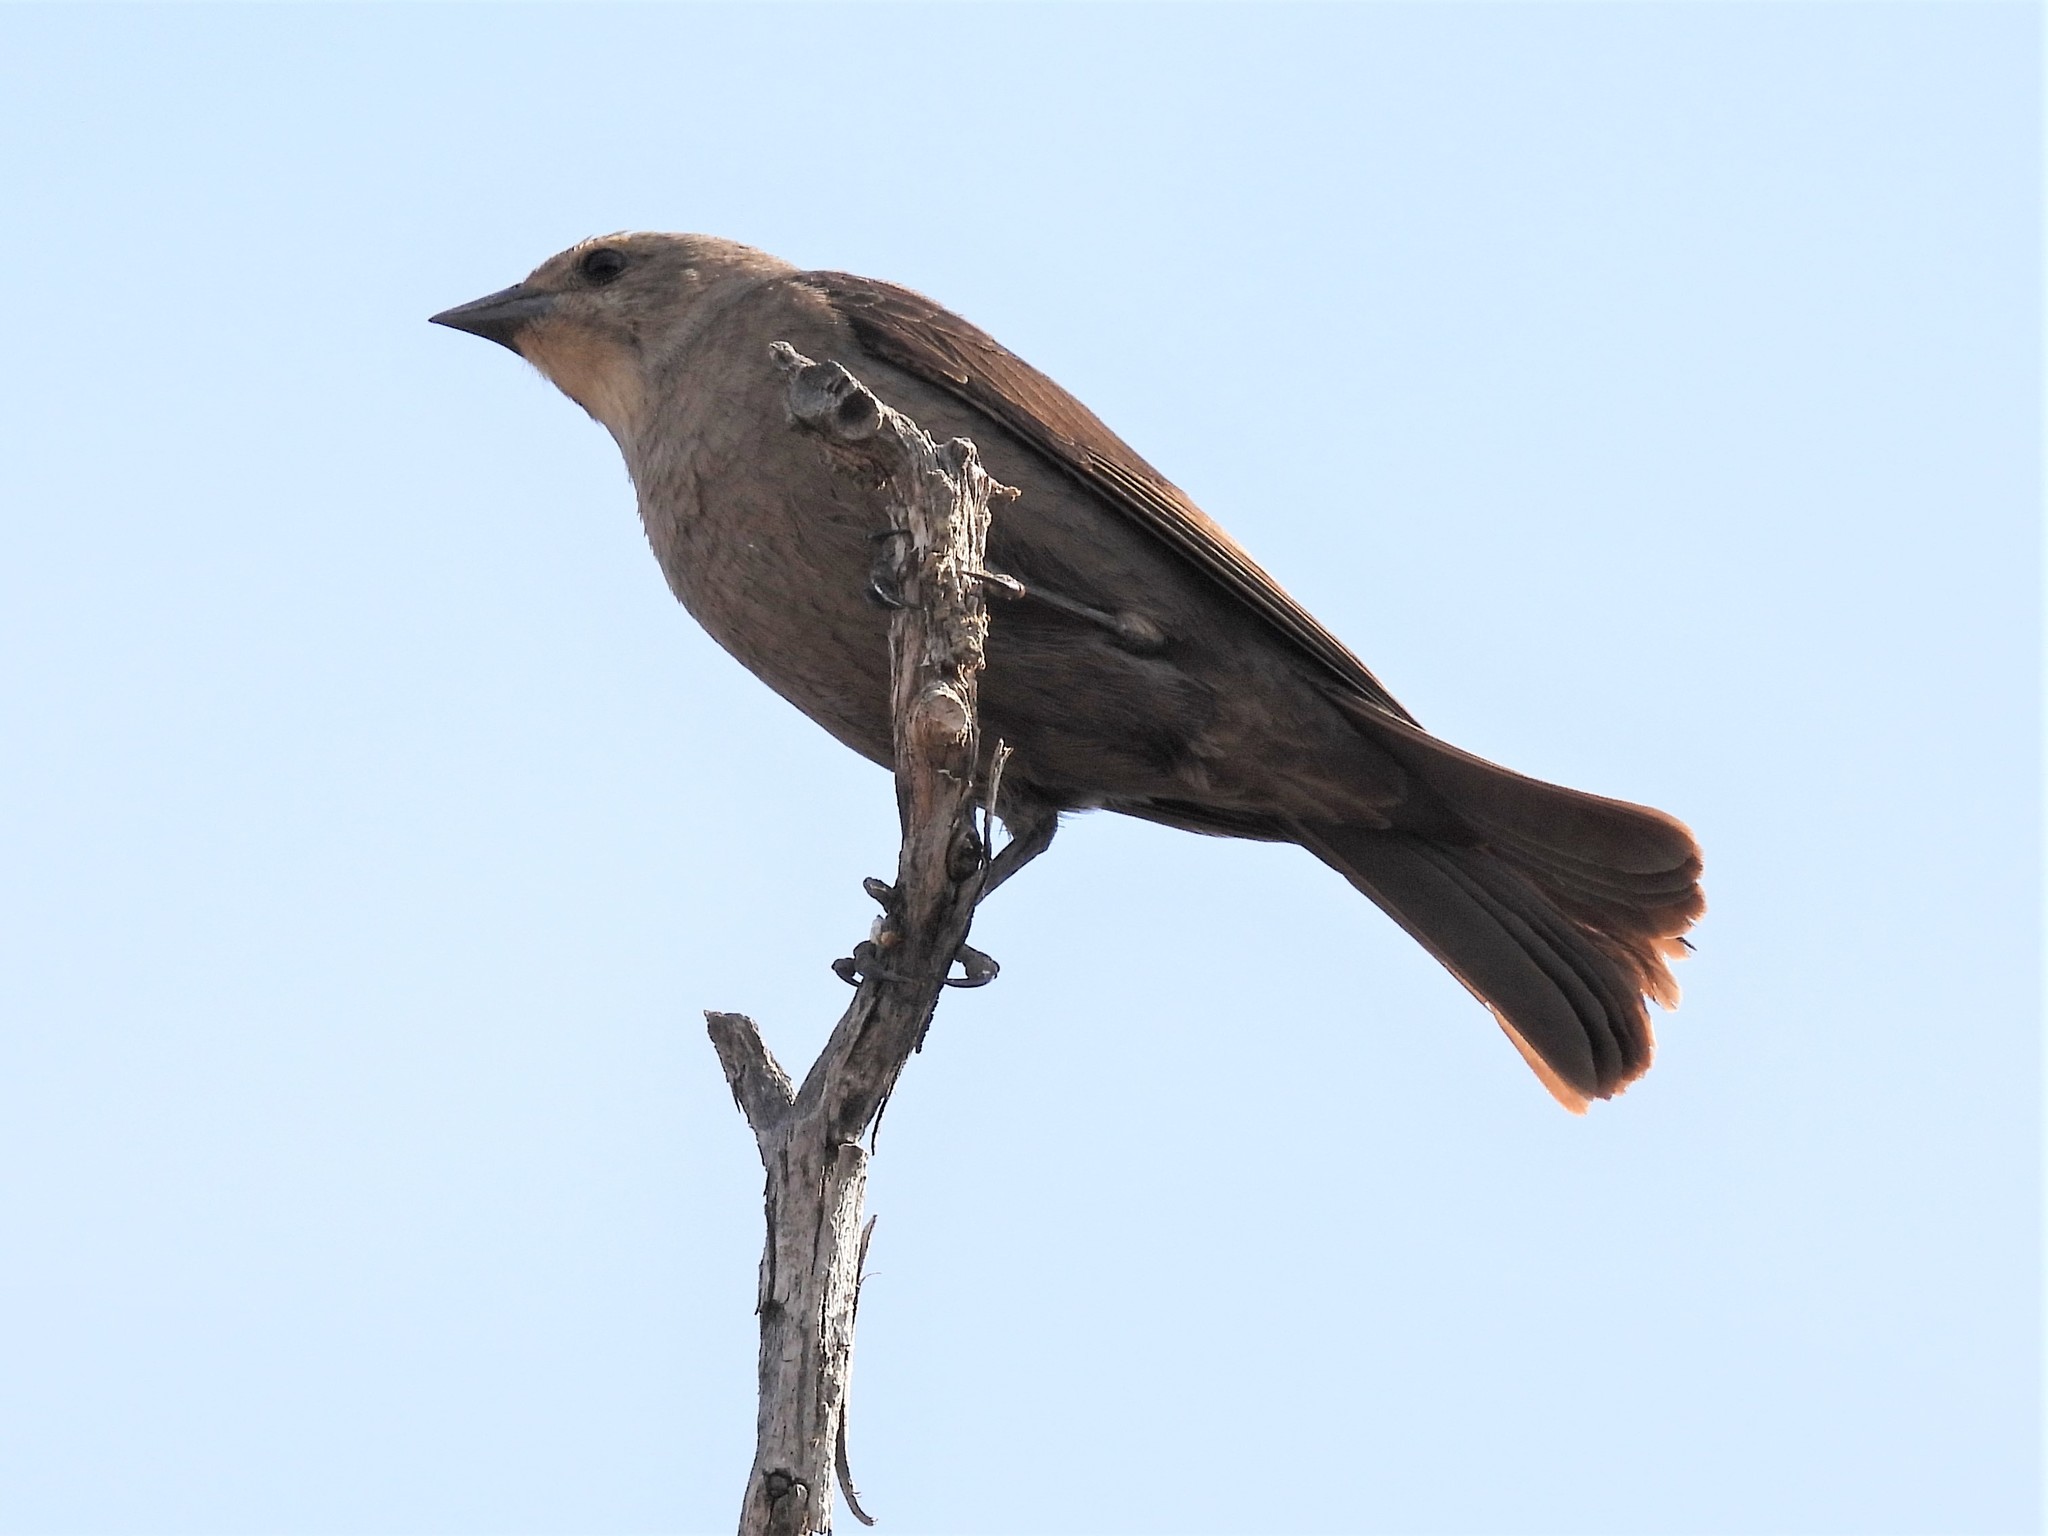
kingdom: Animalia
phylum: Chordata
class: Aves
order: Passeriformes
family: Icteridae
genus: Molothrus
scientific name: Molothrus ater
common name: Brown-headed cowbird
